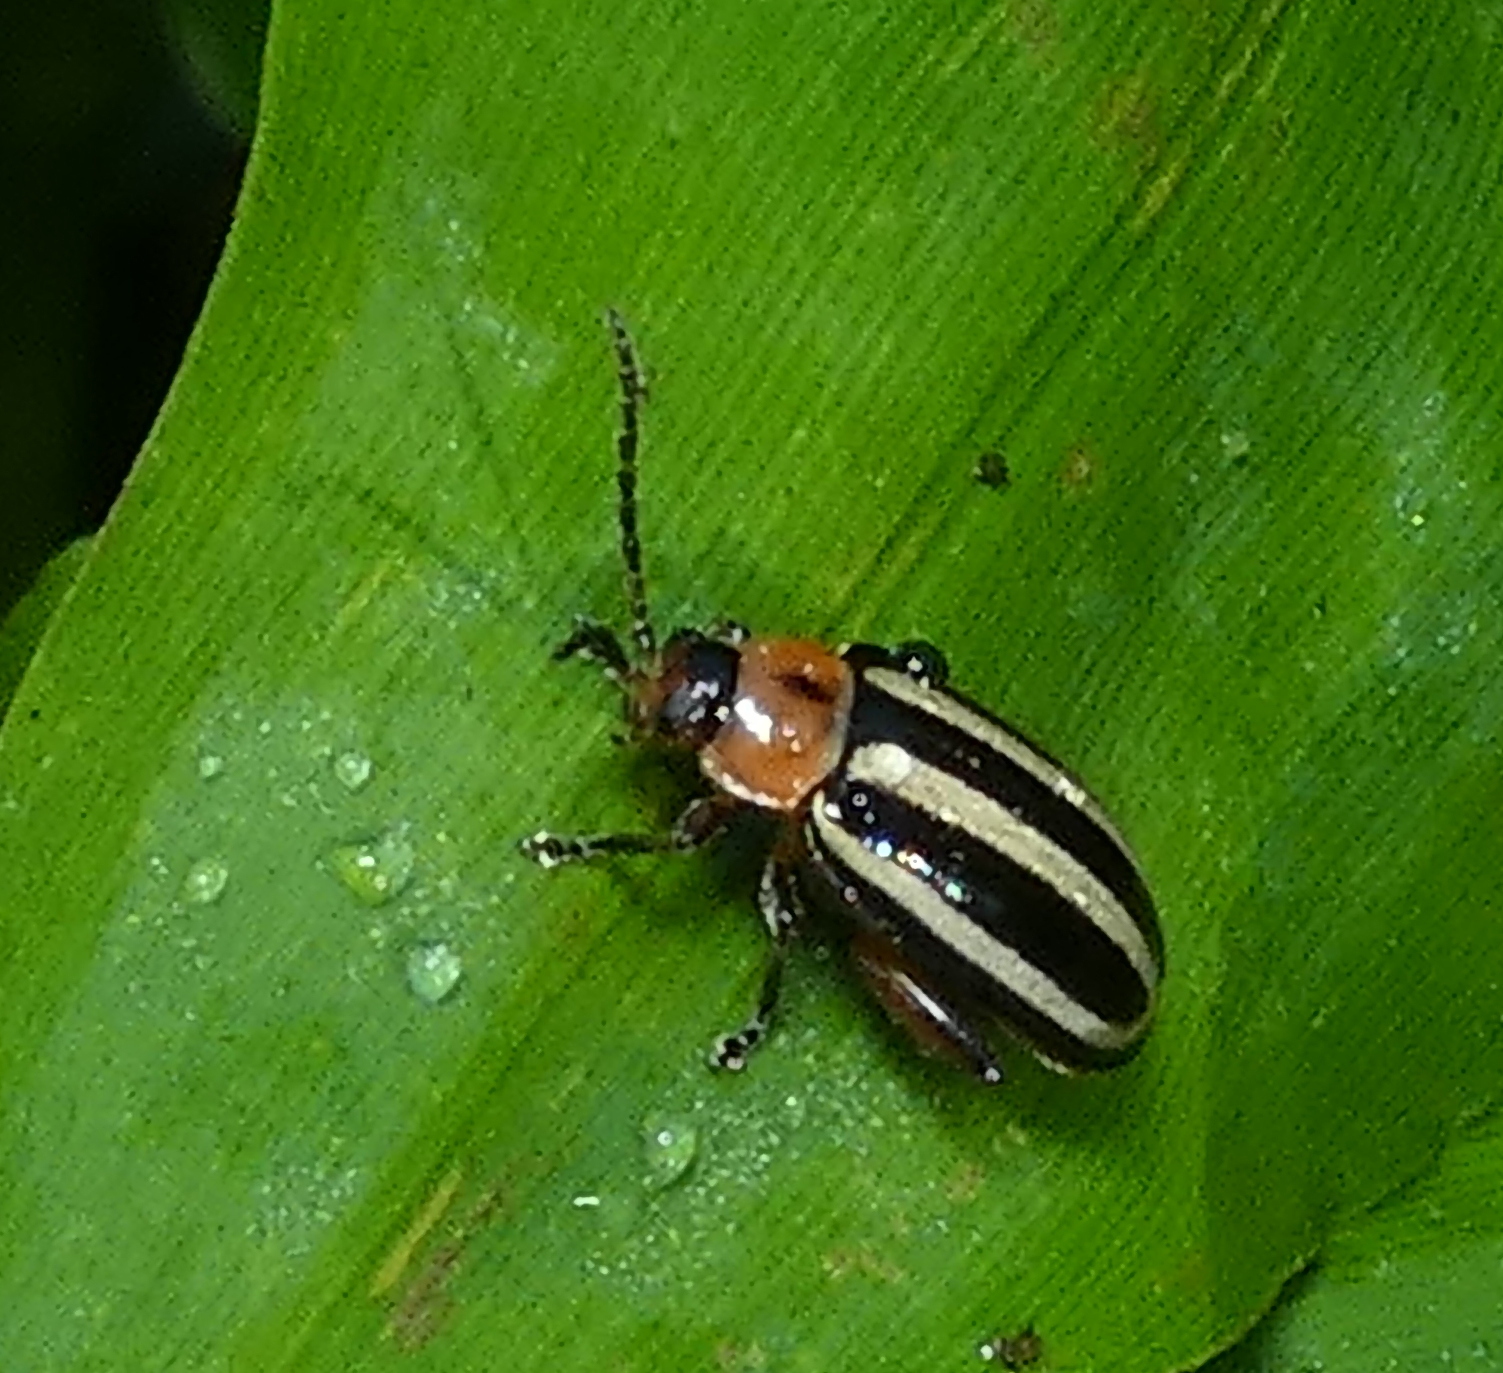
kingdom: Animalia
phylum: Arthropoda
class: Insecta
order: Coleoptera
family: Chrysomelidae
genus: Disonycha
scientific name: Disonycha glabrata
